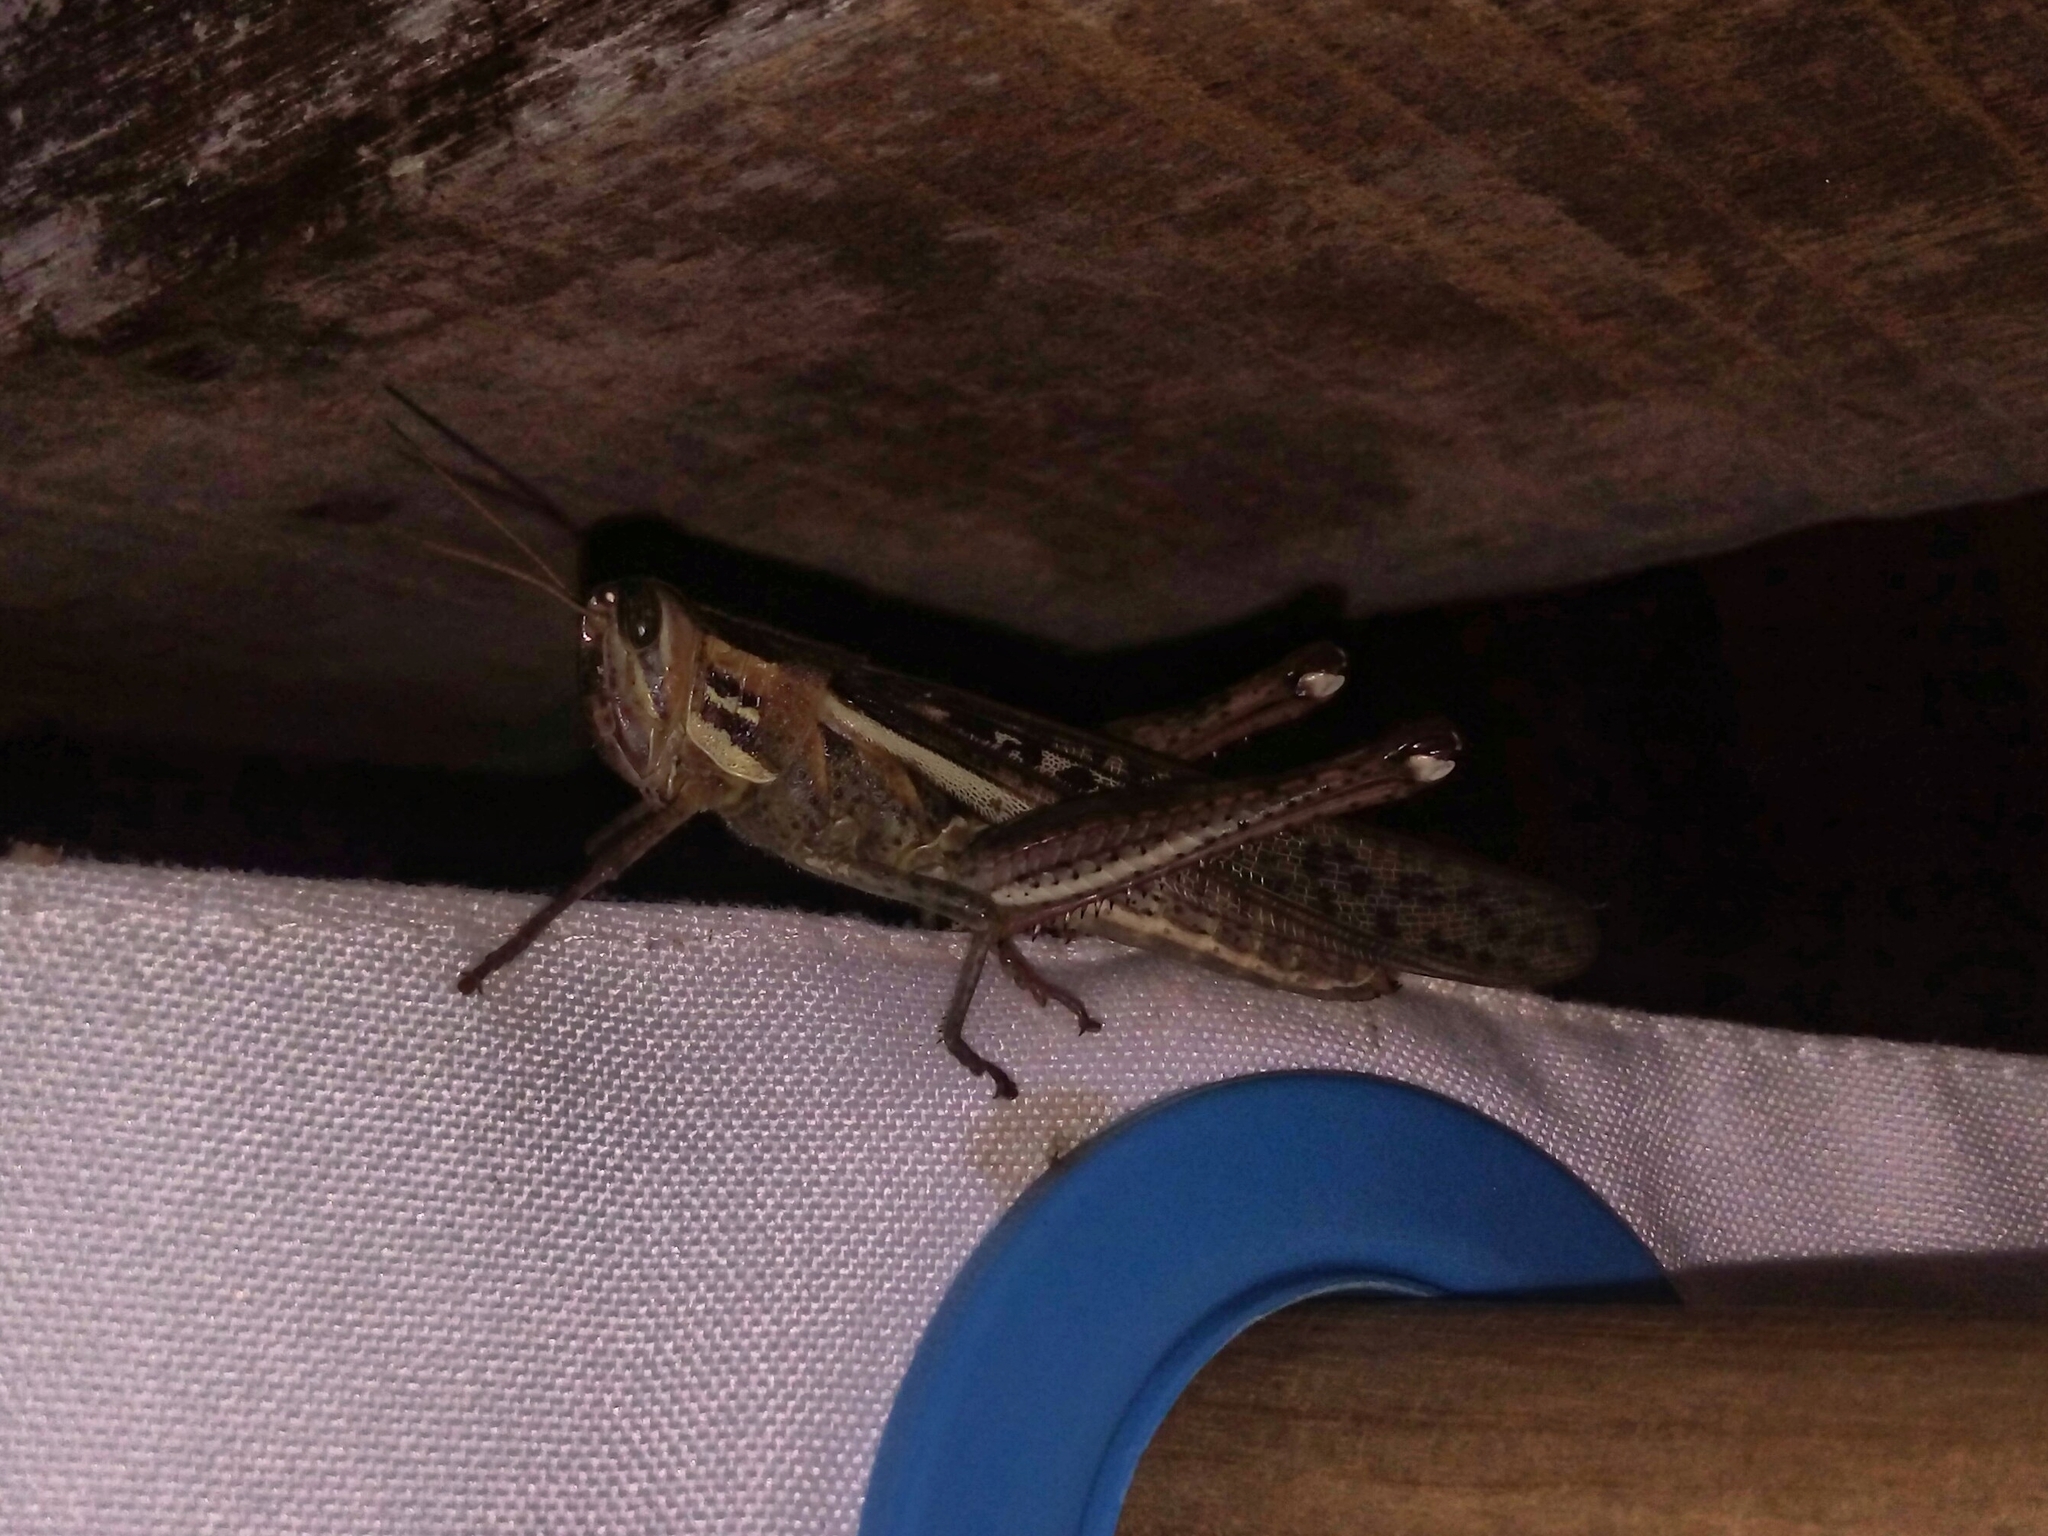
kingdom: Animalia
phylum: Arthropoda
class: Insecta
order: Orthoptera
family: Acrididae
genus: Schistocerca
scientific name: Schistocerca cancellata
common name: South american locust
